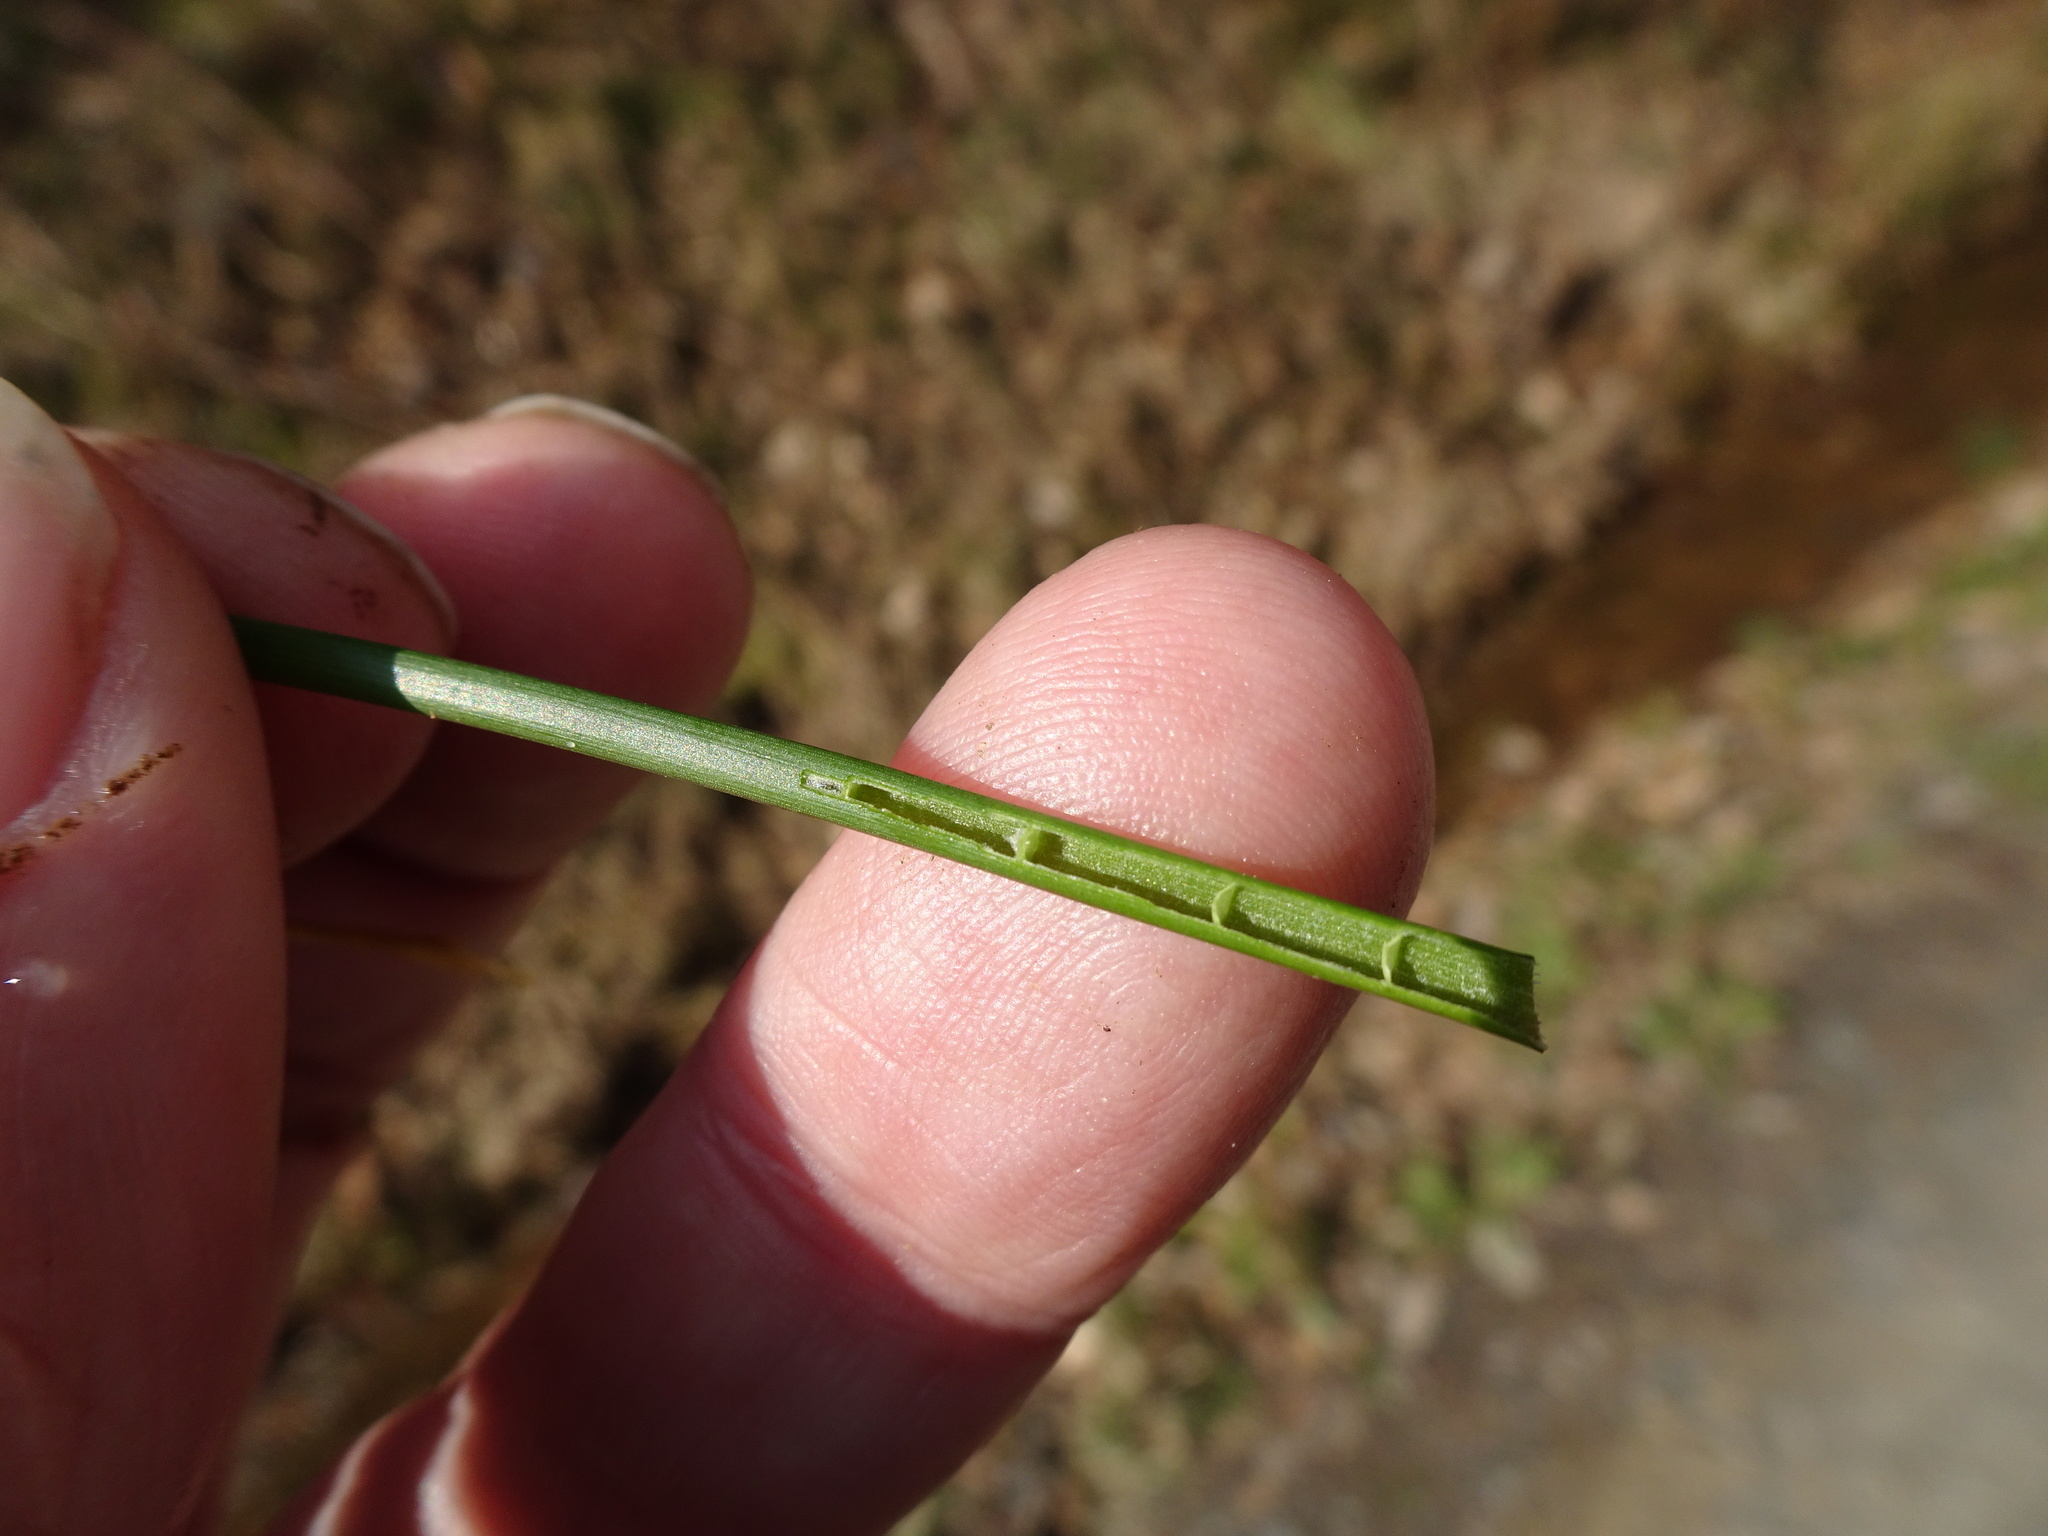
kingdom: Plantae
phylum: Tracheophyta
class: Liliopsida
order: Poales
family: Juncaceae
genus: Juncus
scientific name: Juncus articulatus
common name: Jointed rush
